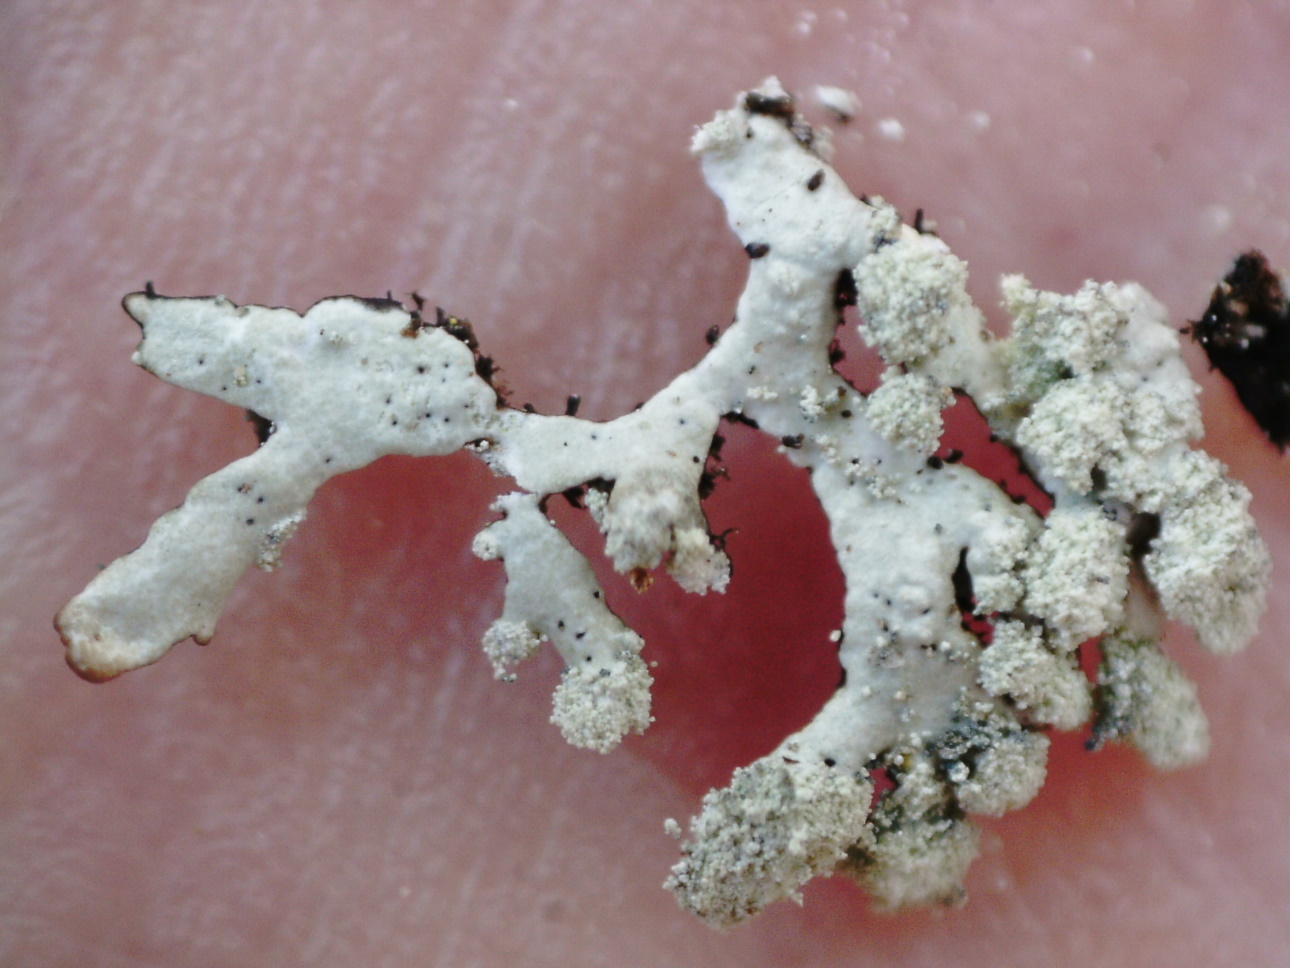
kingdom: Fungi
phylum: Ascomycota
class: Lecanoromycetes
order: Lecanorales
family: Parmeliaceae
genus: Parmeliopsis
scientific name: Parmeliopsis hyperopta
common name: Grey starburst lichen
